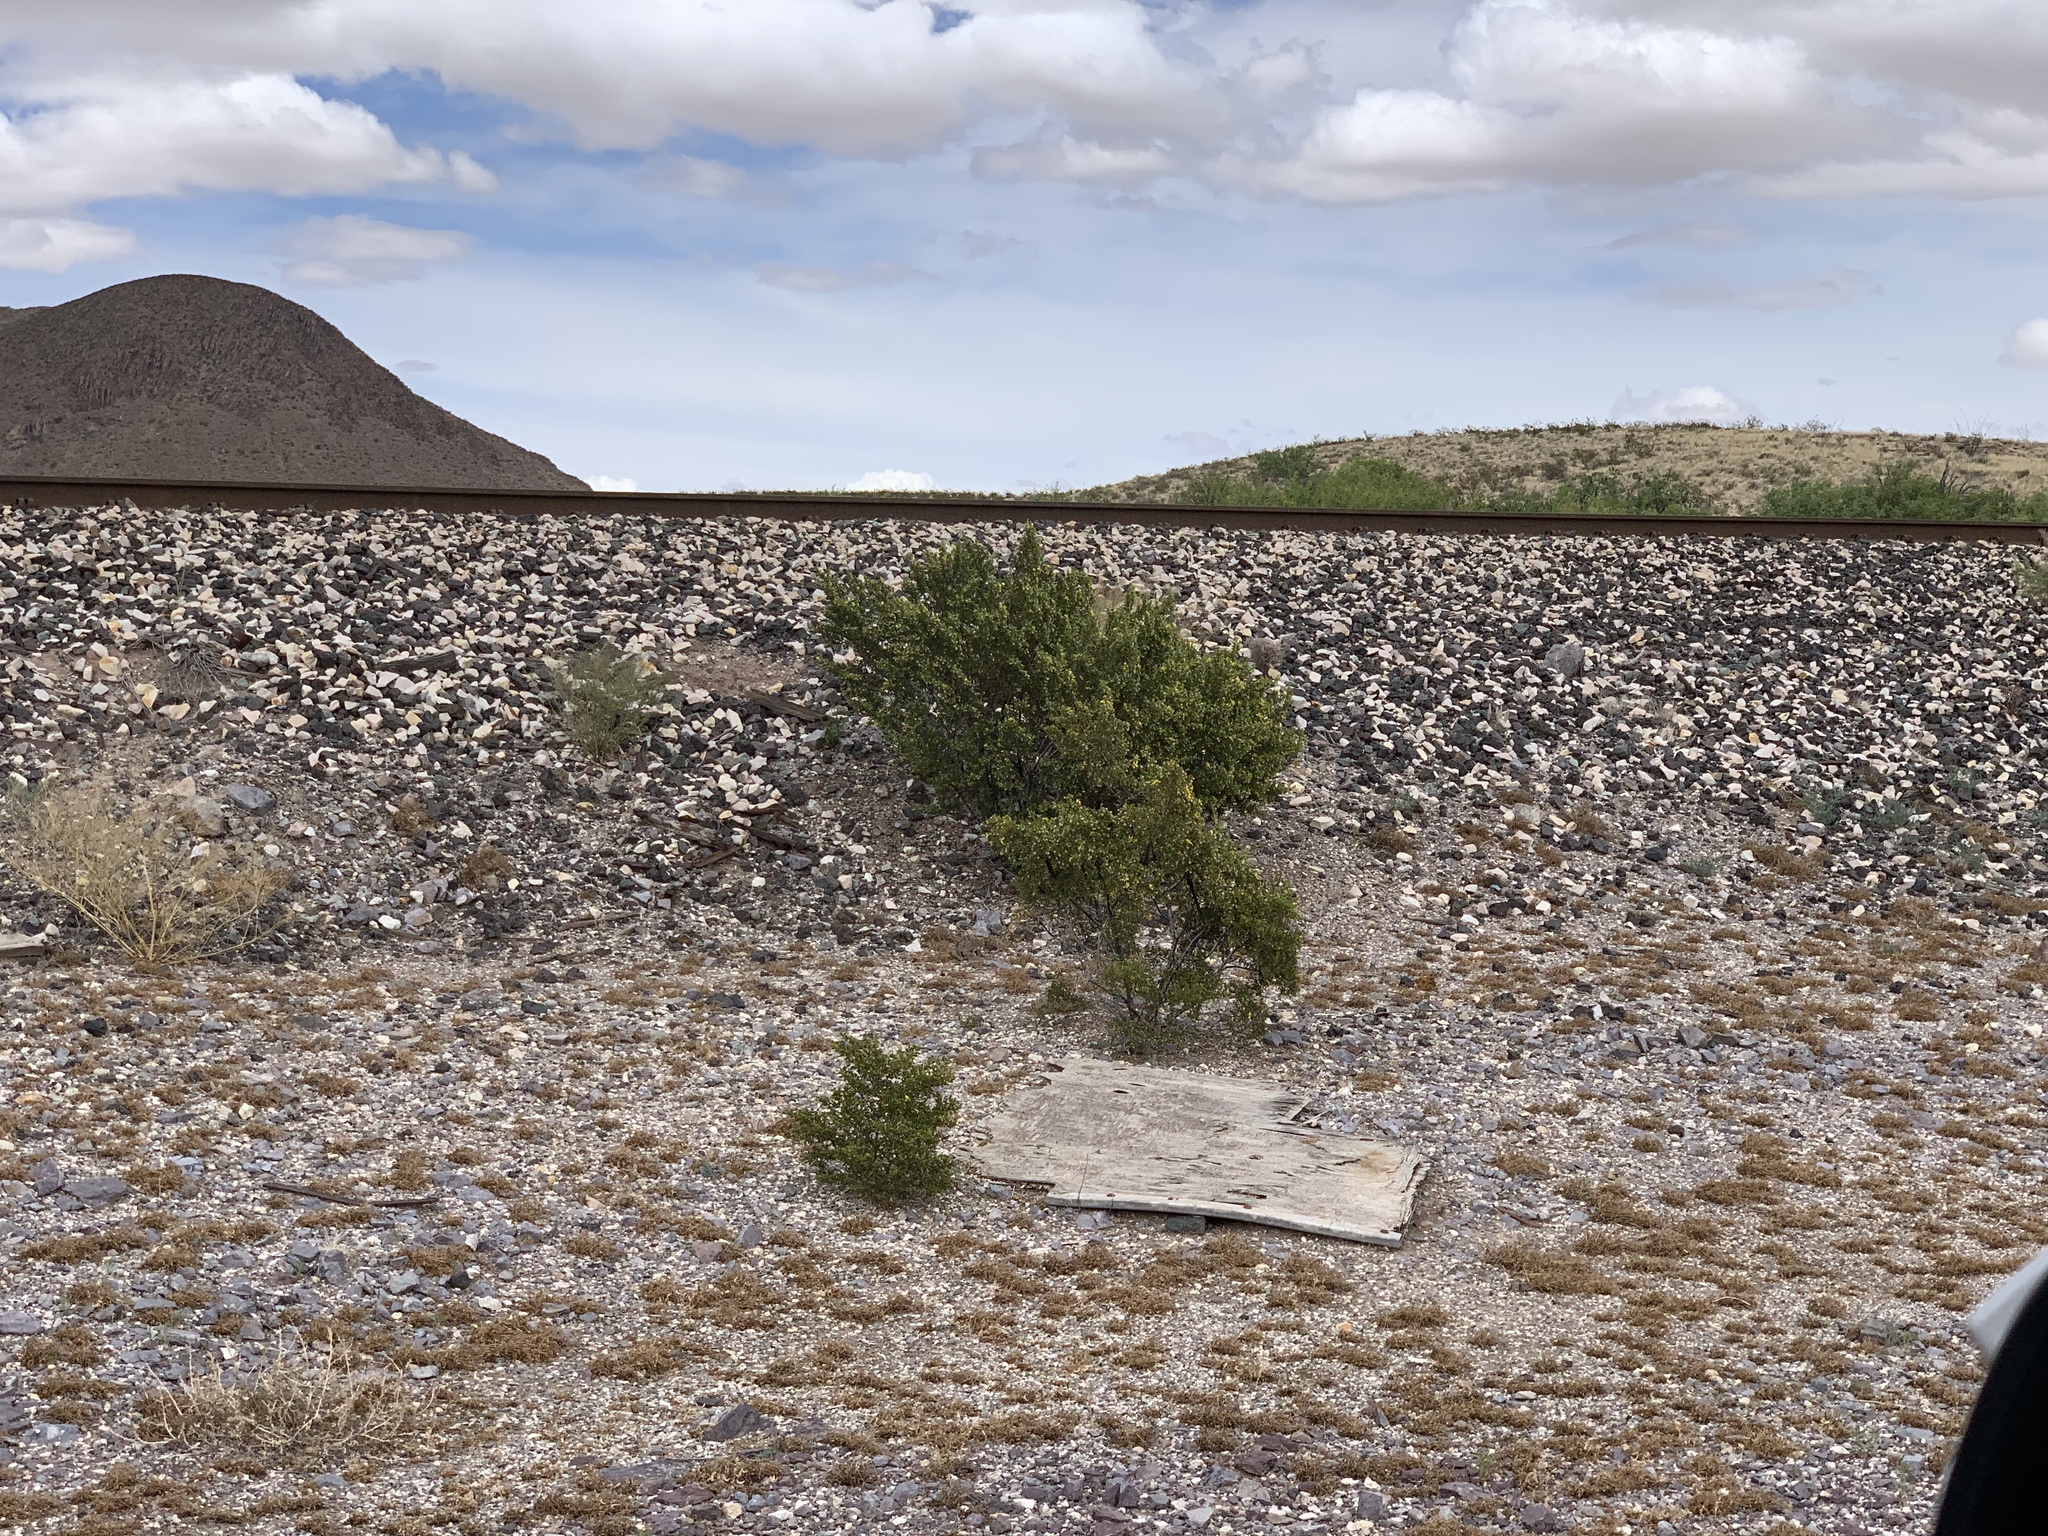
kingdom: Plantae
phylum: Tracheophyta
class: Magnoliopsida
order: Zygophyllales
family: Zygophyllaceae
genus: Larrea
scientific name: Larrea tridentata
